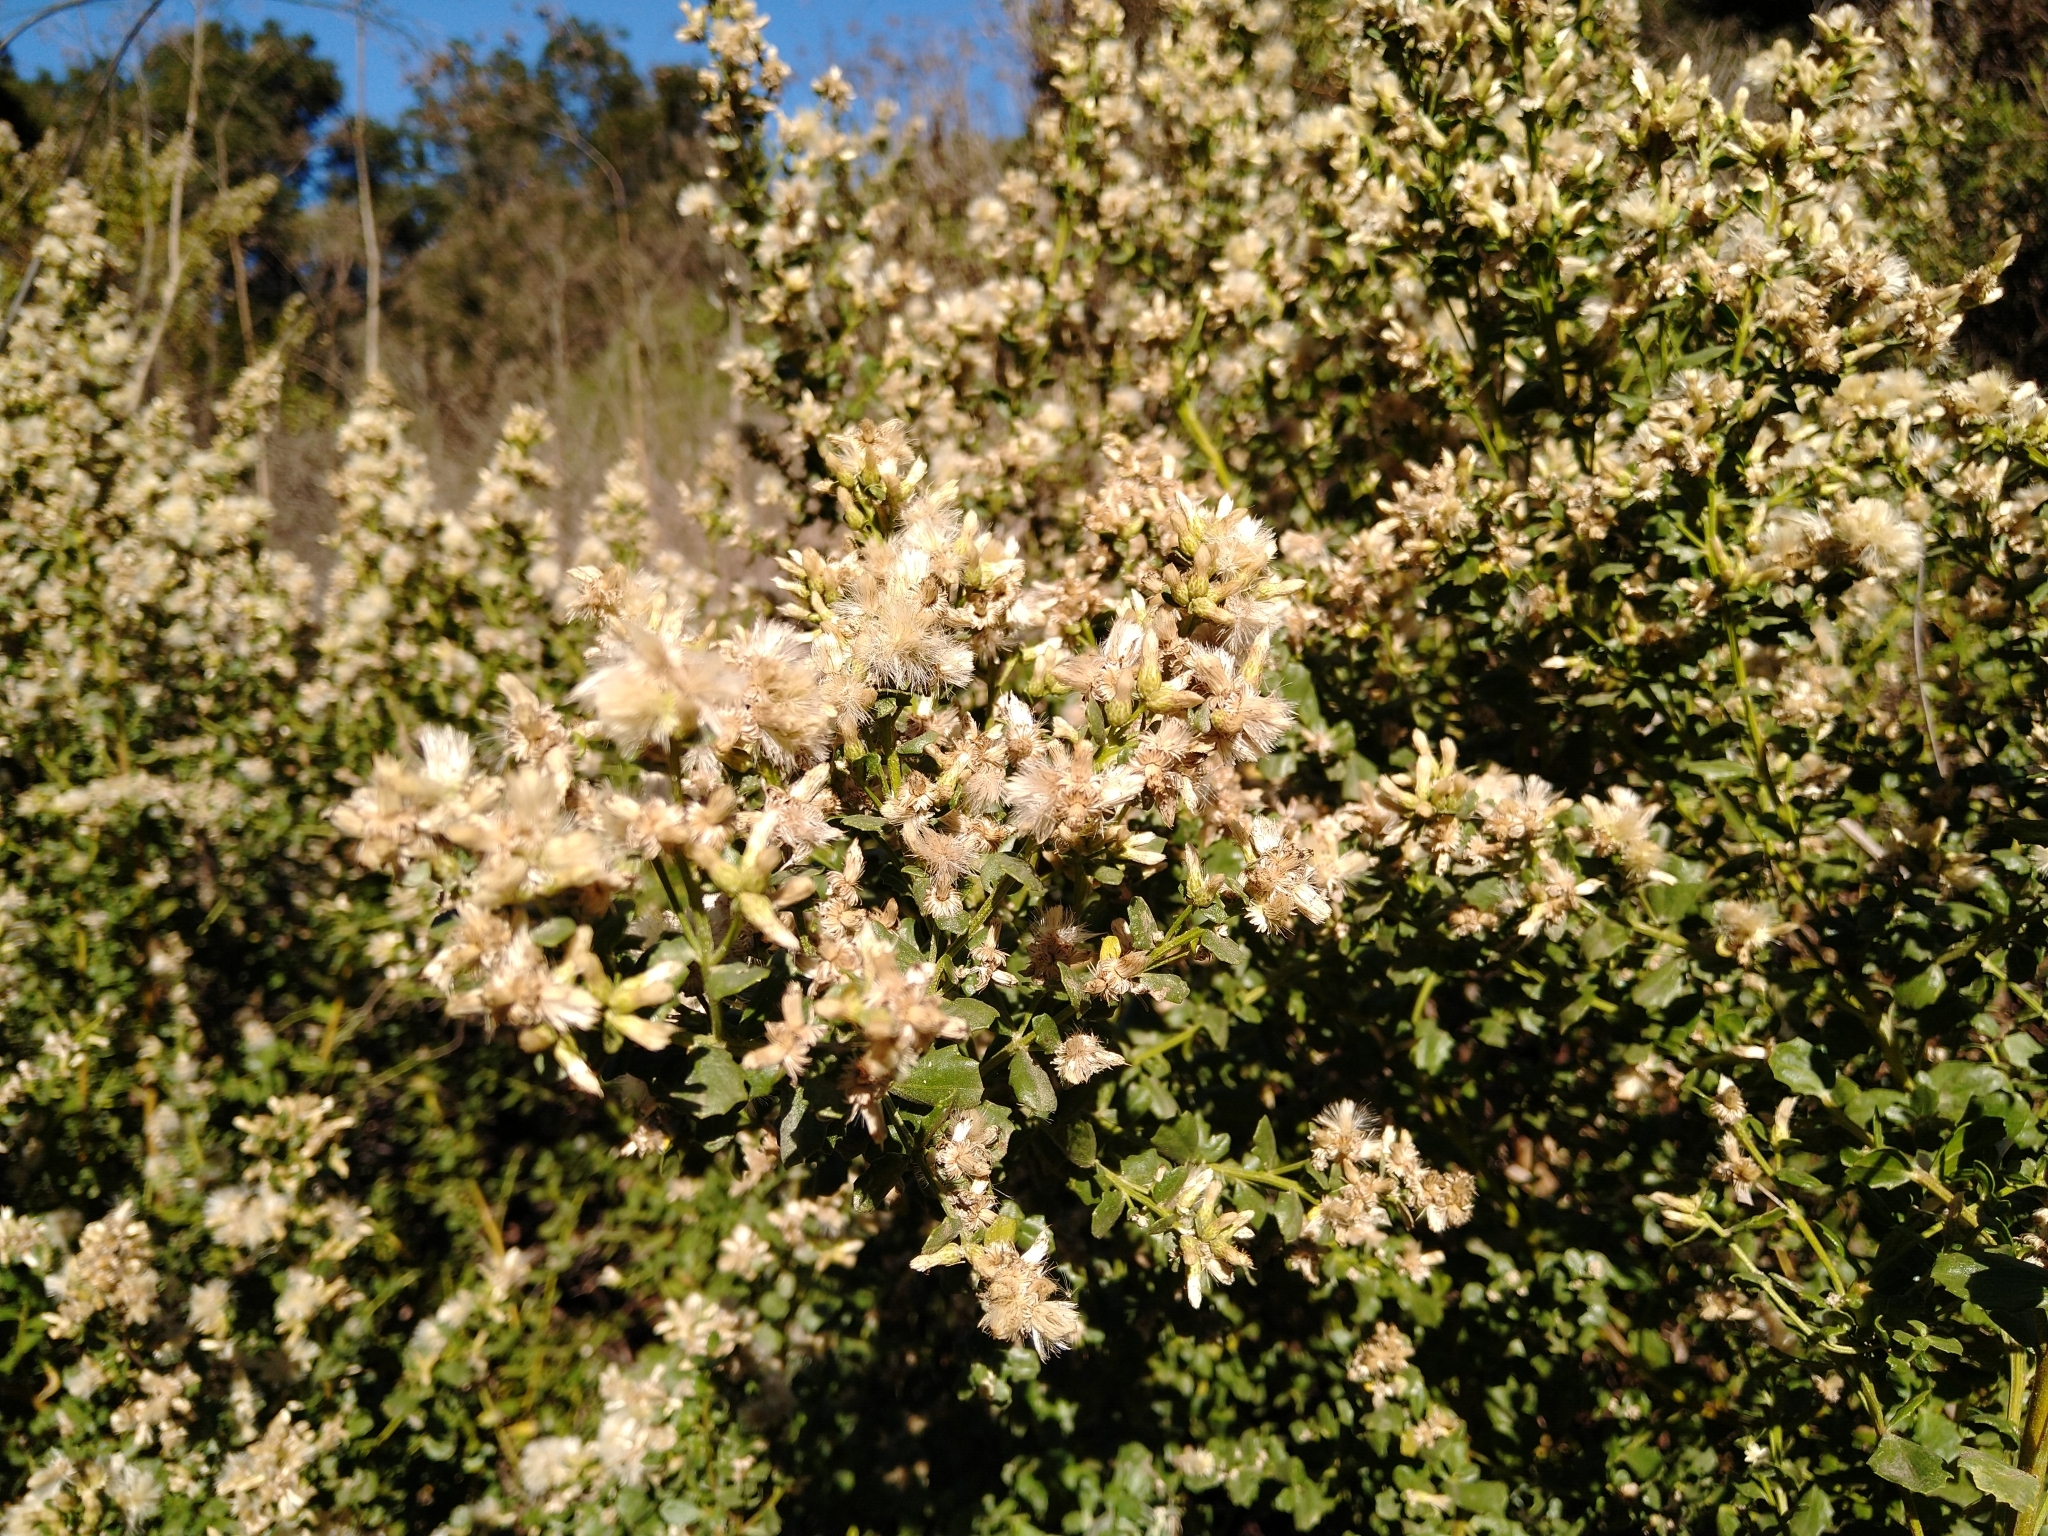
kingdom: Plantae
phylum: Tracheophyta
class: Magnoliopsida
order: Asterales
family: Asteraceae
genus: Baccharis
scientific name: Baccharis pilularis
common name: Coyotebrush
